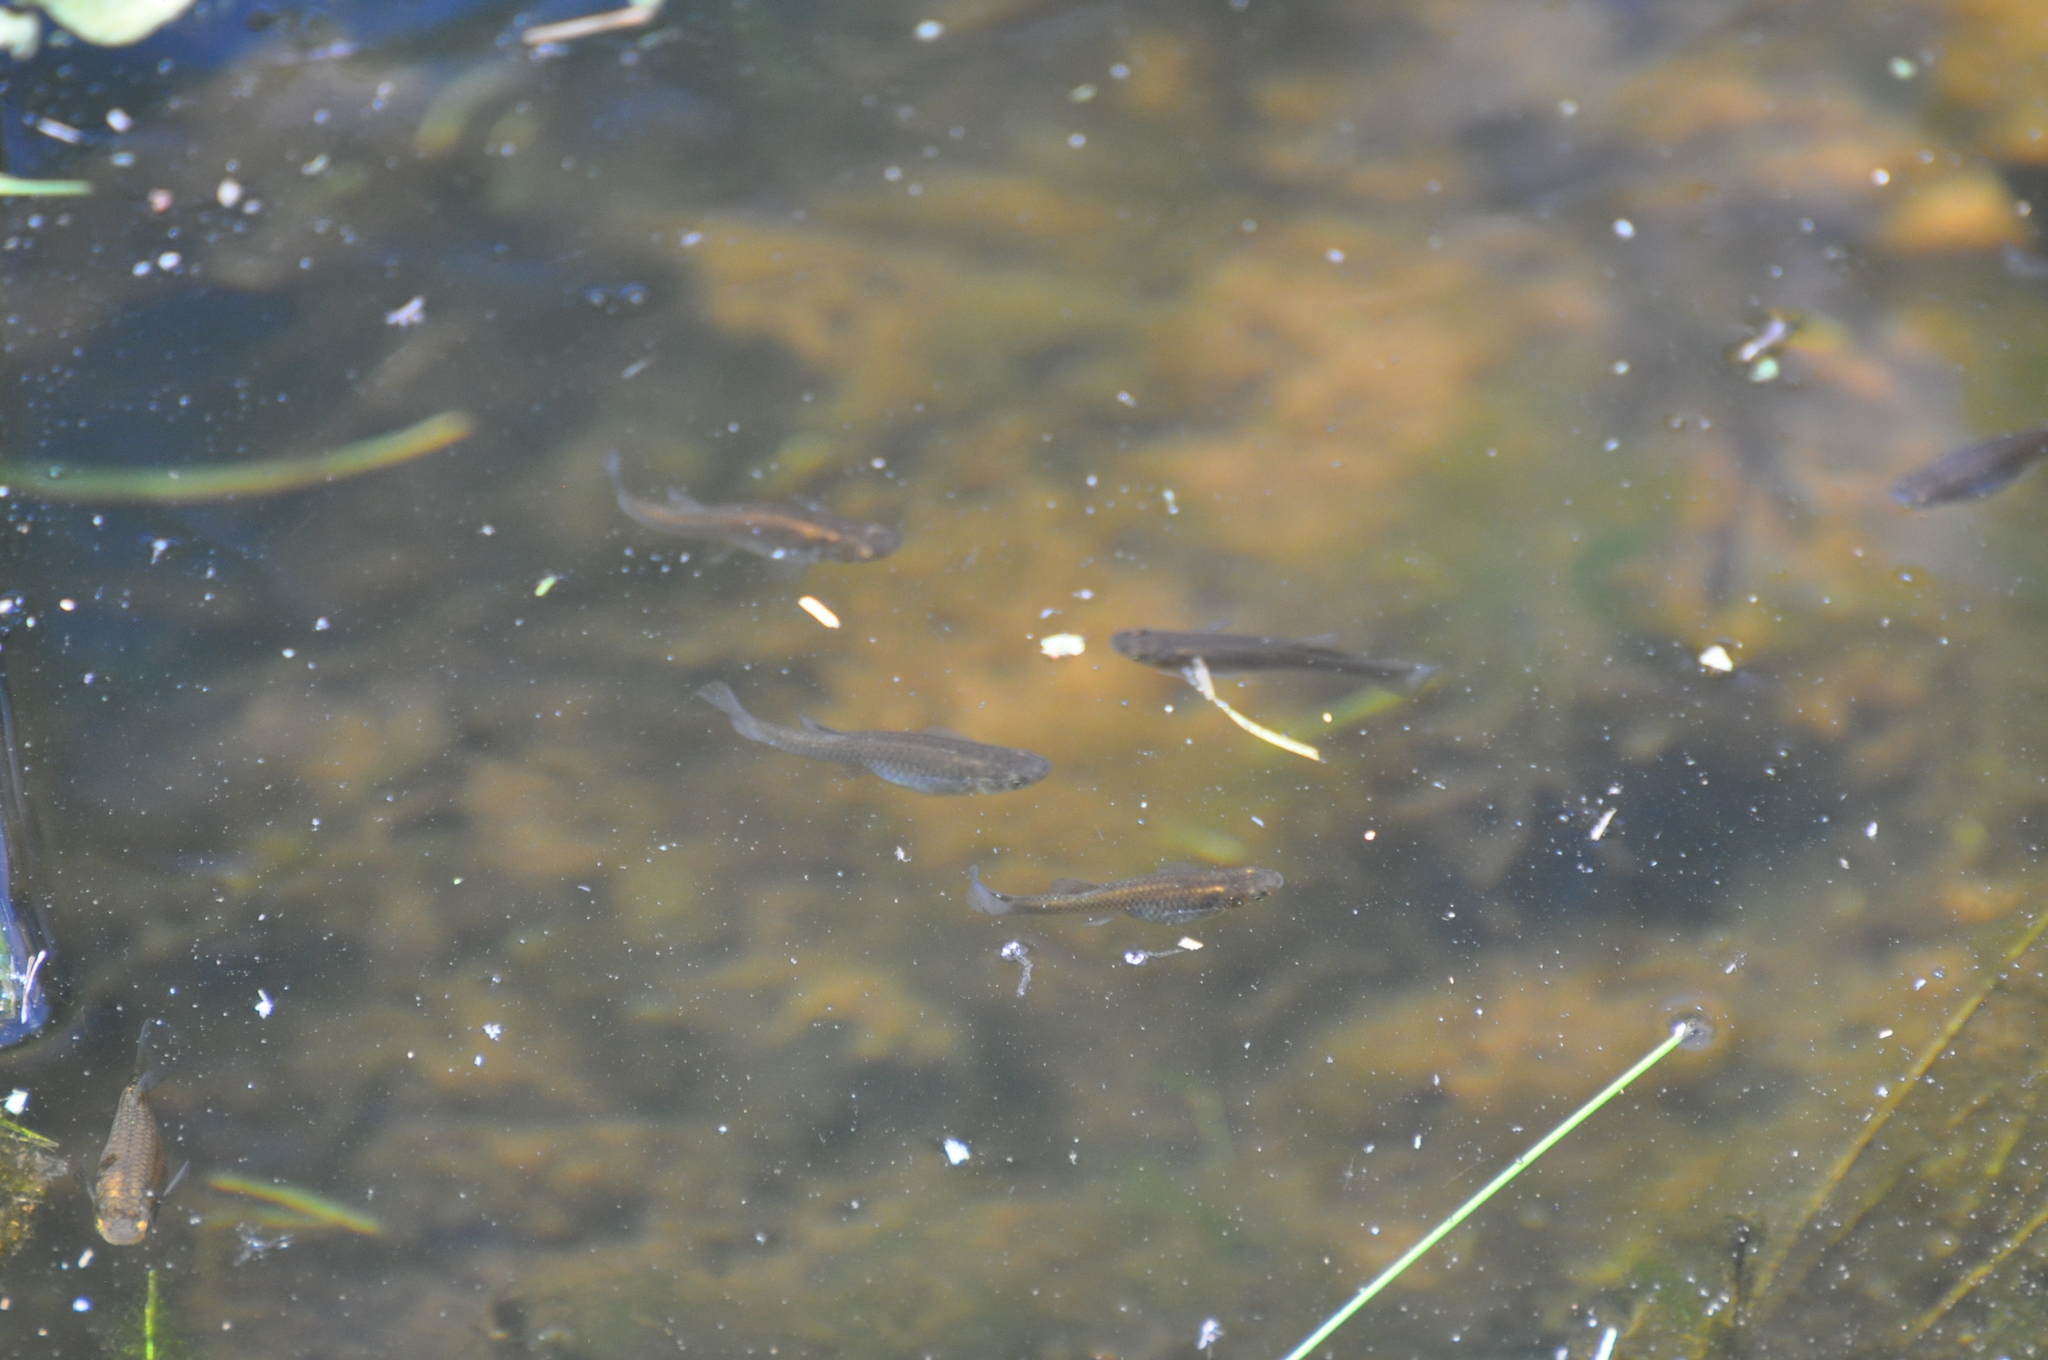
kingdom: Animalia
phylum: Chordata
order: Cyprinodontiformes
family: Poeciliidae
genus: Gambusia
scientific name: Gambusia affinis
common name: Mosquitofish
